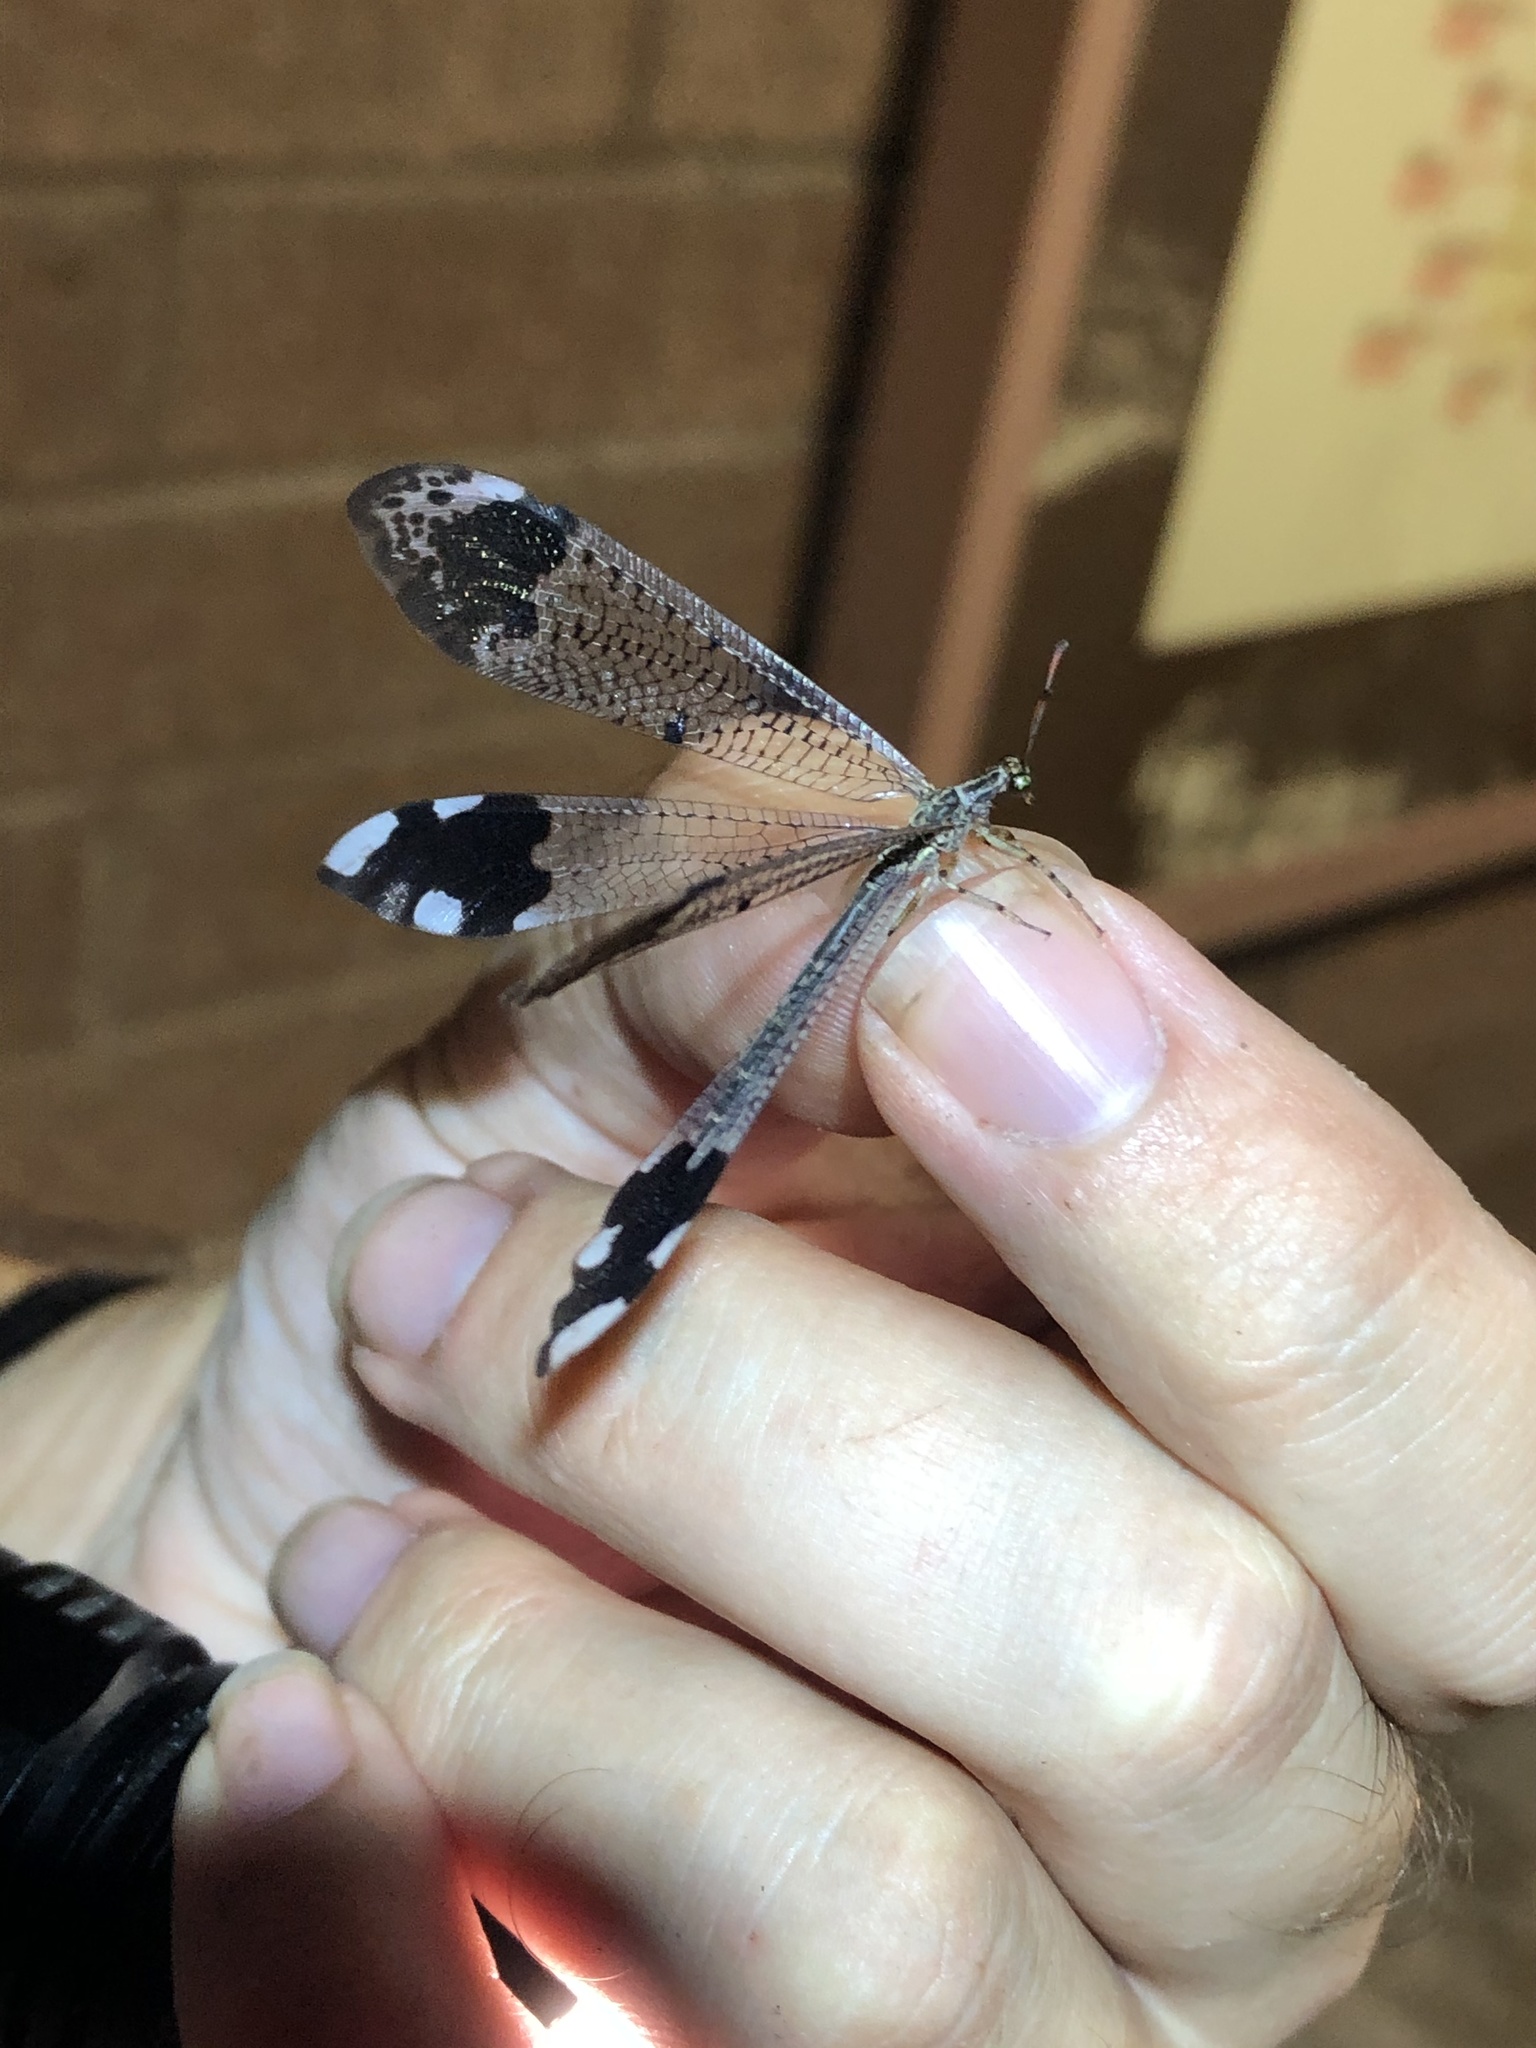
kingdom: Animalia
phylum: Arthropoda
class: Insecta
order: Neuroptera
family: Myrmeleontidae
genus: Glenurus
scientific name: Glenurus luniger
